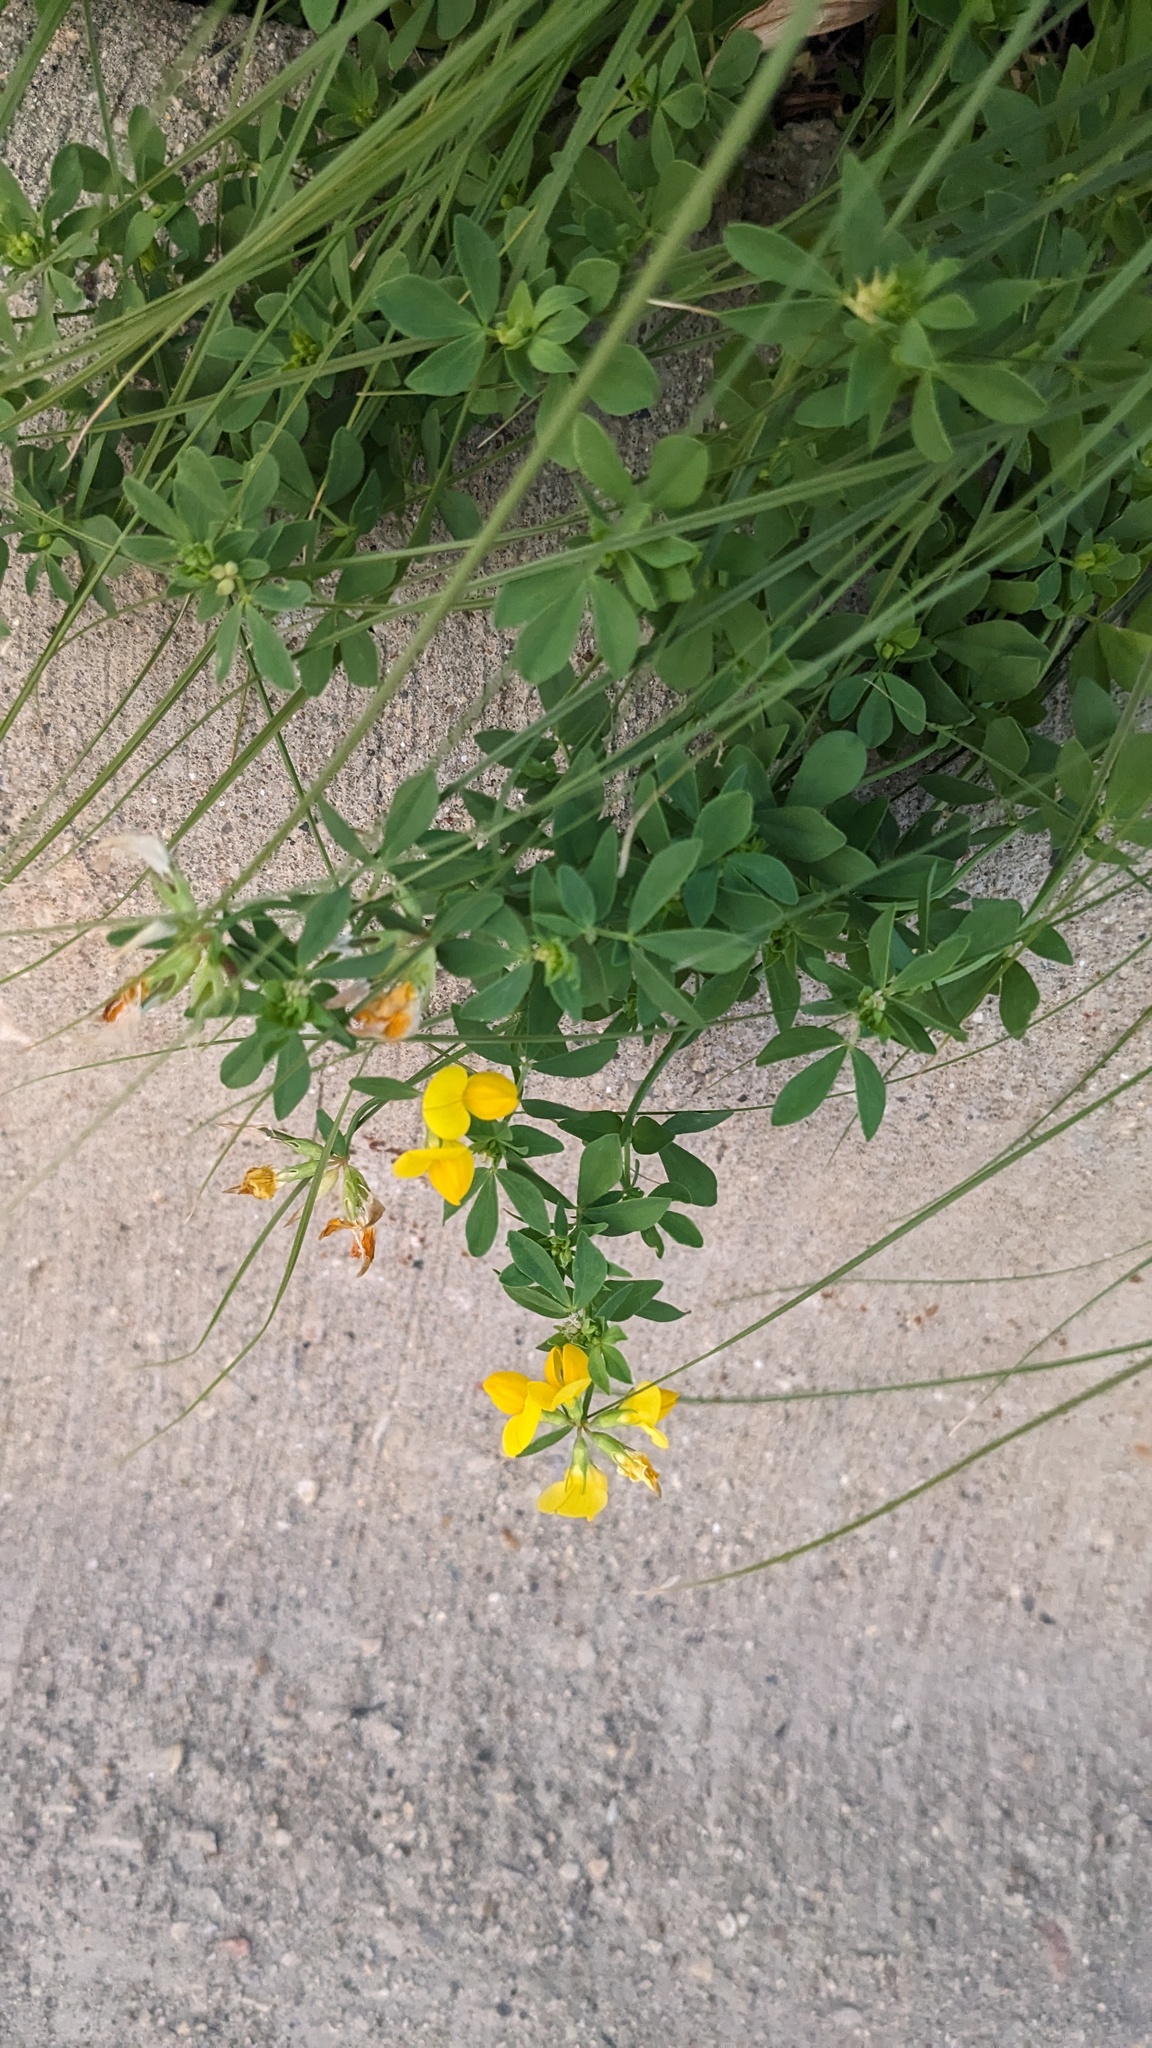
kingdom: Plantae
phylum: Tracheophyta
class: Magnoliopsida
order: Fabales
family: Fabaceae
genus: Lotus
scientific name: Lotus corniculatus
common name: Common bird's-foot-trefoil
